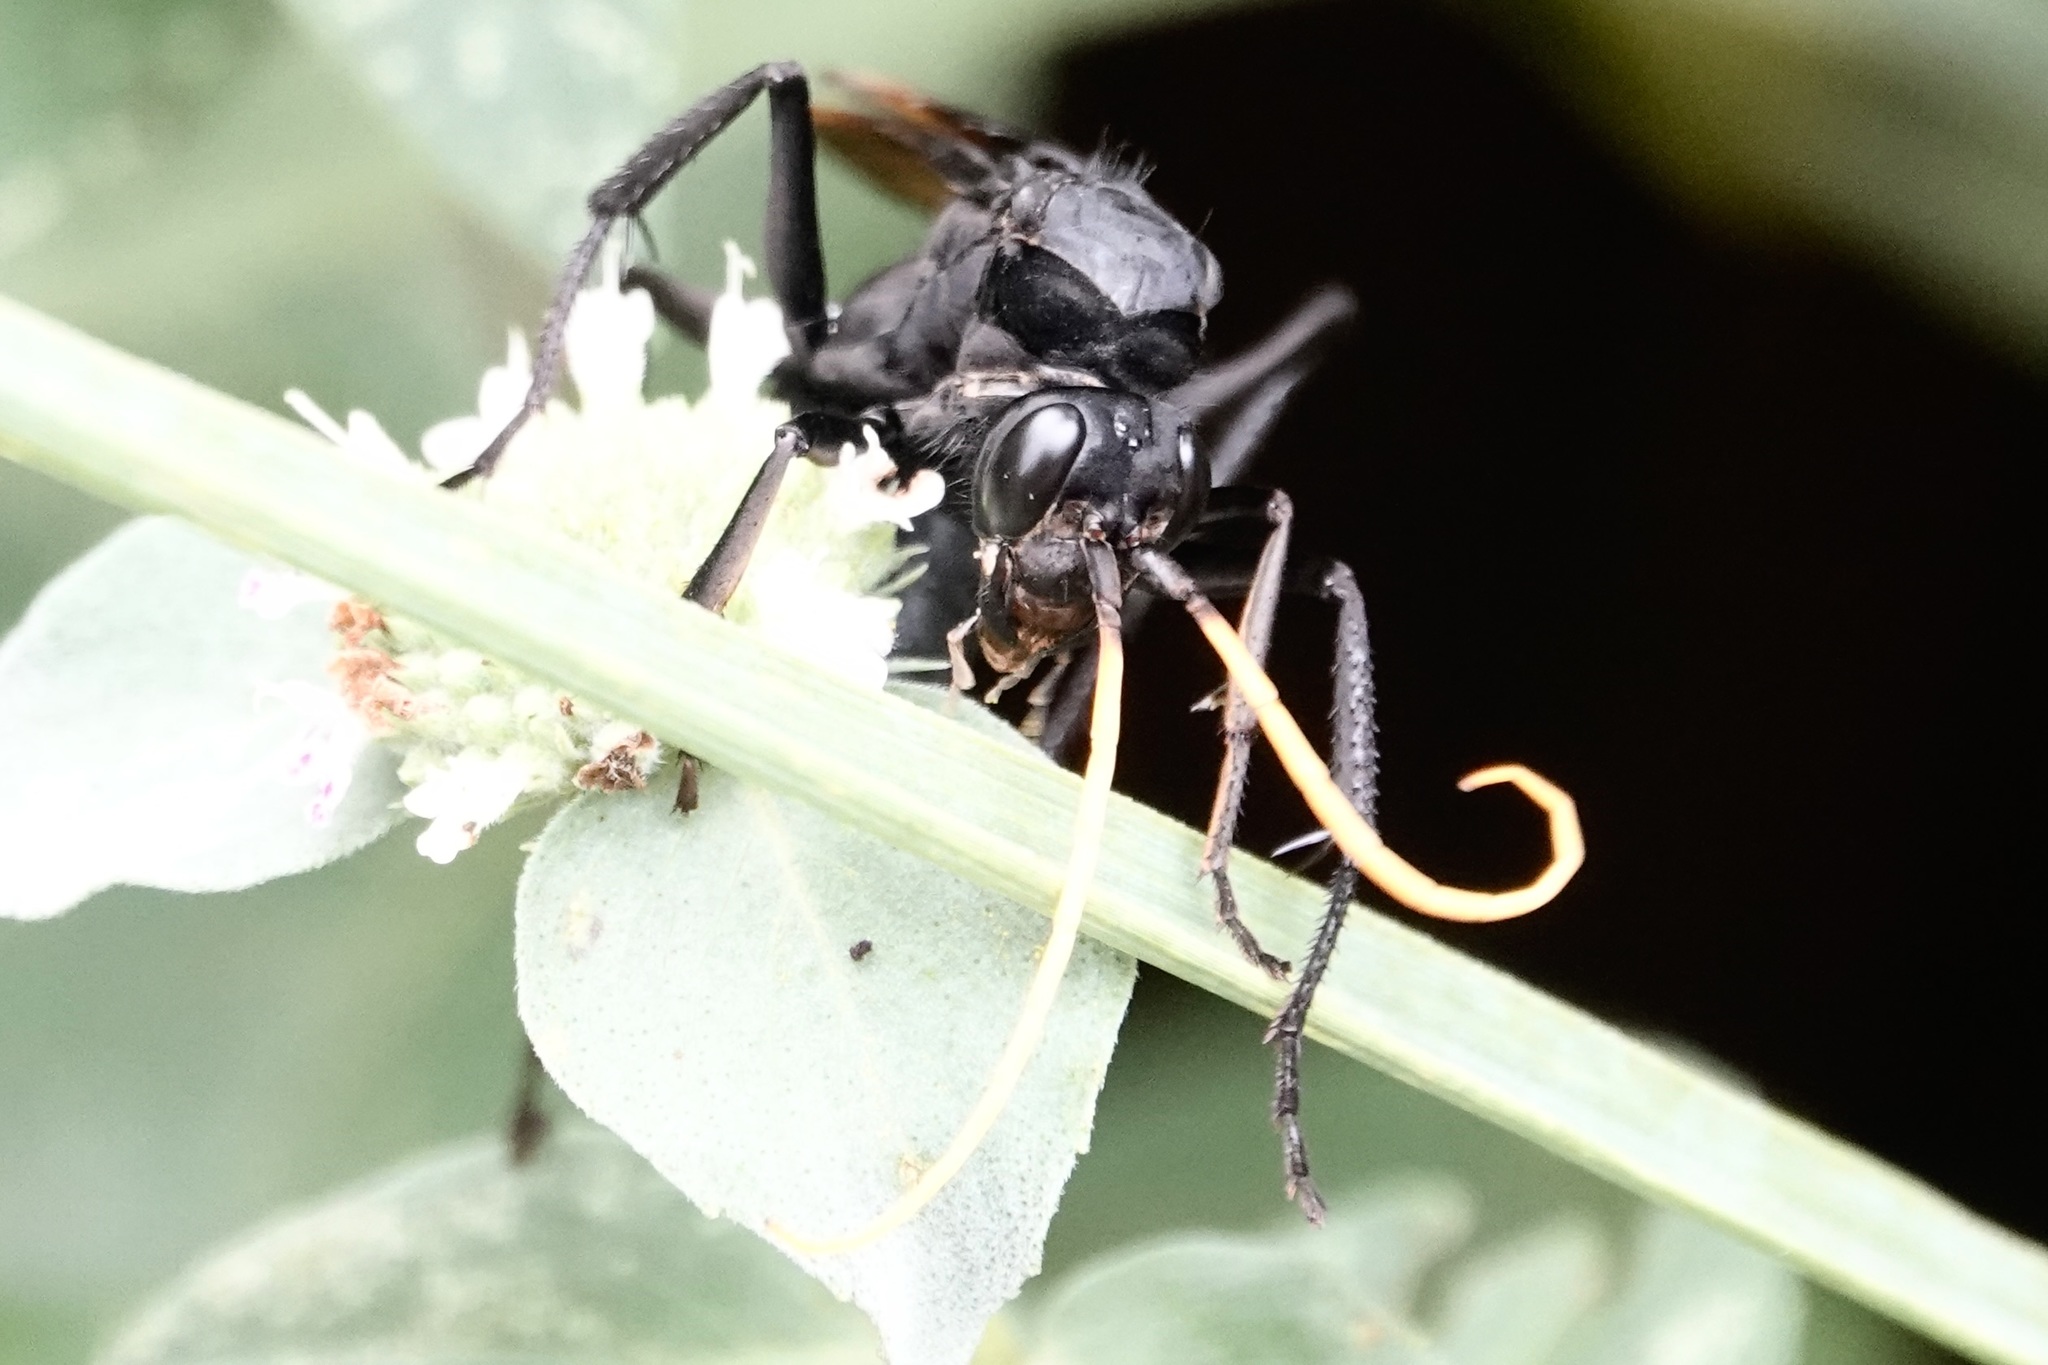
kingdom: Animalia
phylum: Arthropoda
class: Insecta
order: Hymenoptera
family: Pompilidae
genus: Entypus
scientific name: Entypus unifasciatus
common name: Eastern tawny-horned spider wasp
